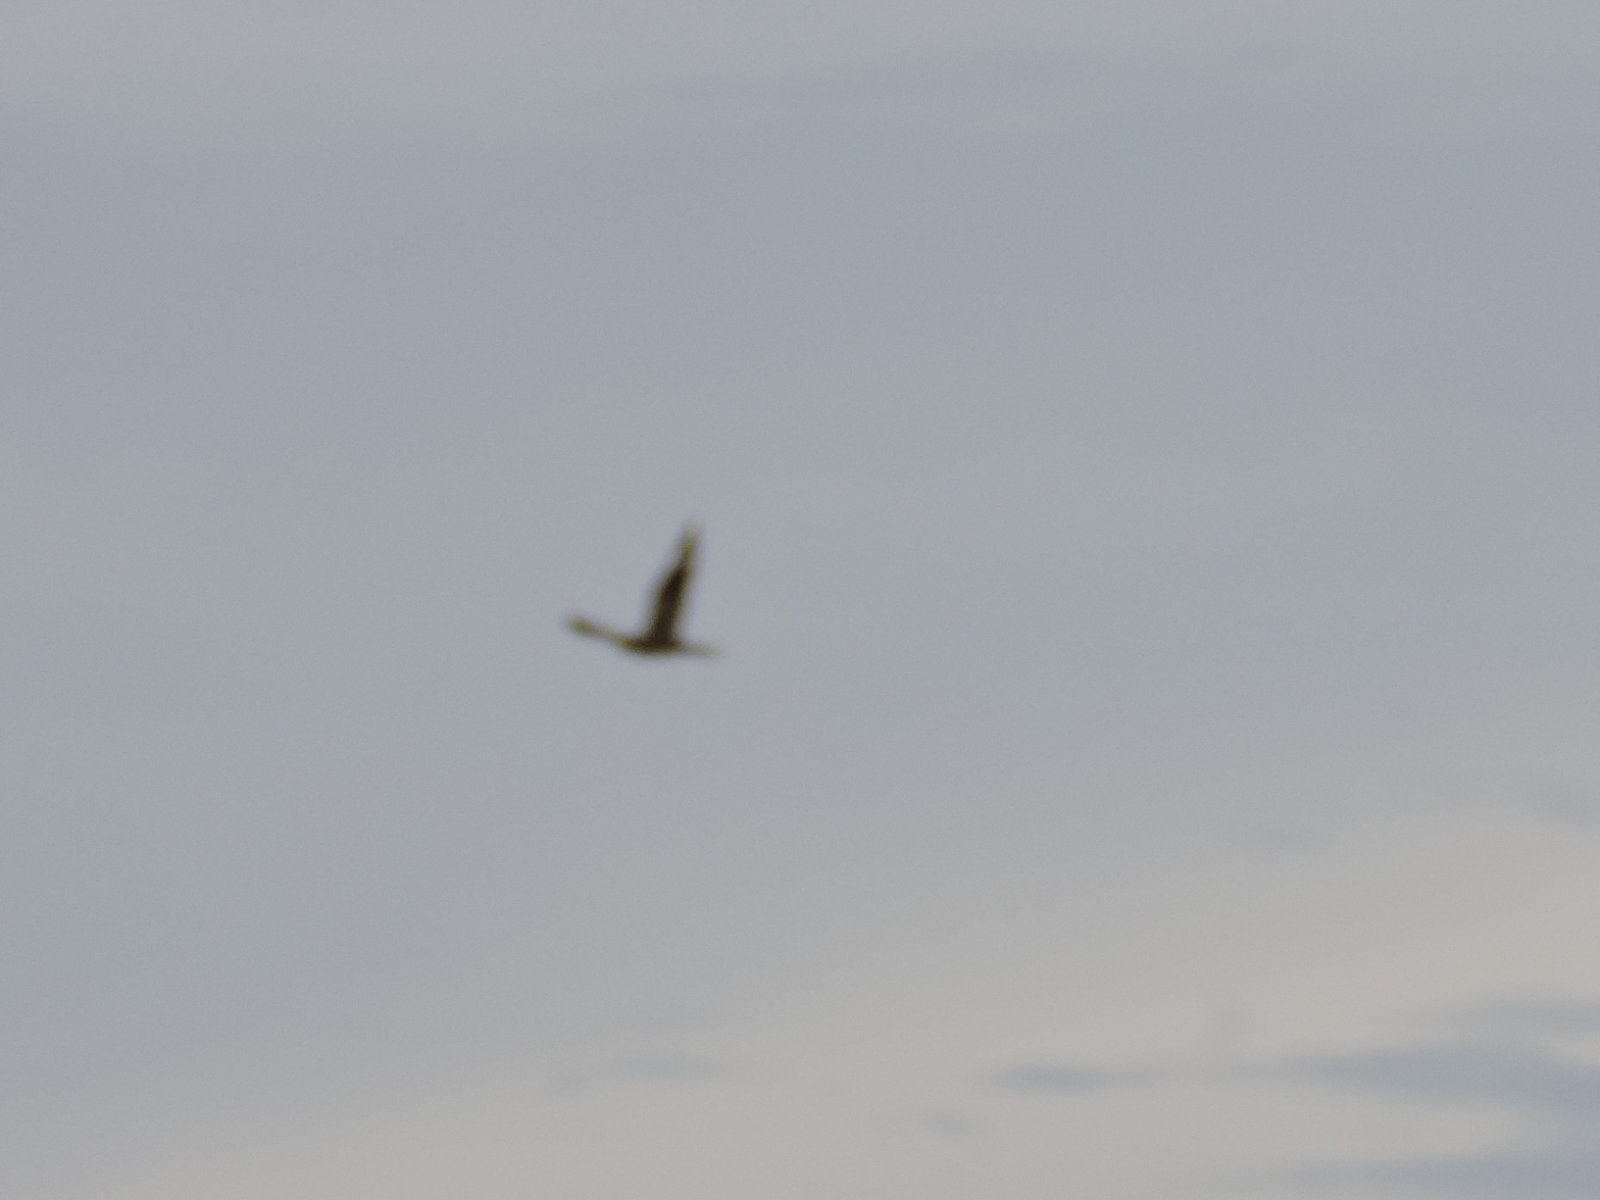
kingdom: Animalia
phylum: Chordata
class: Aves
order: Caprimulgiformes
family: Caprimulgidae
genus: Chordeiles
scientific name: Chordeiles minor
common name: Common nighthawk
